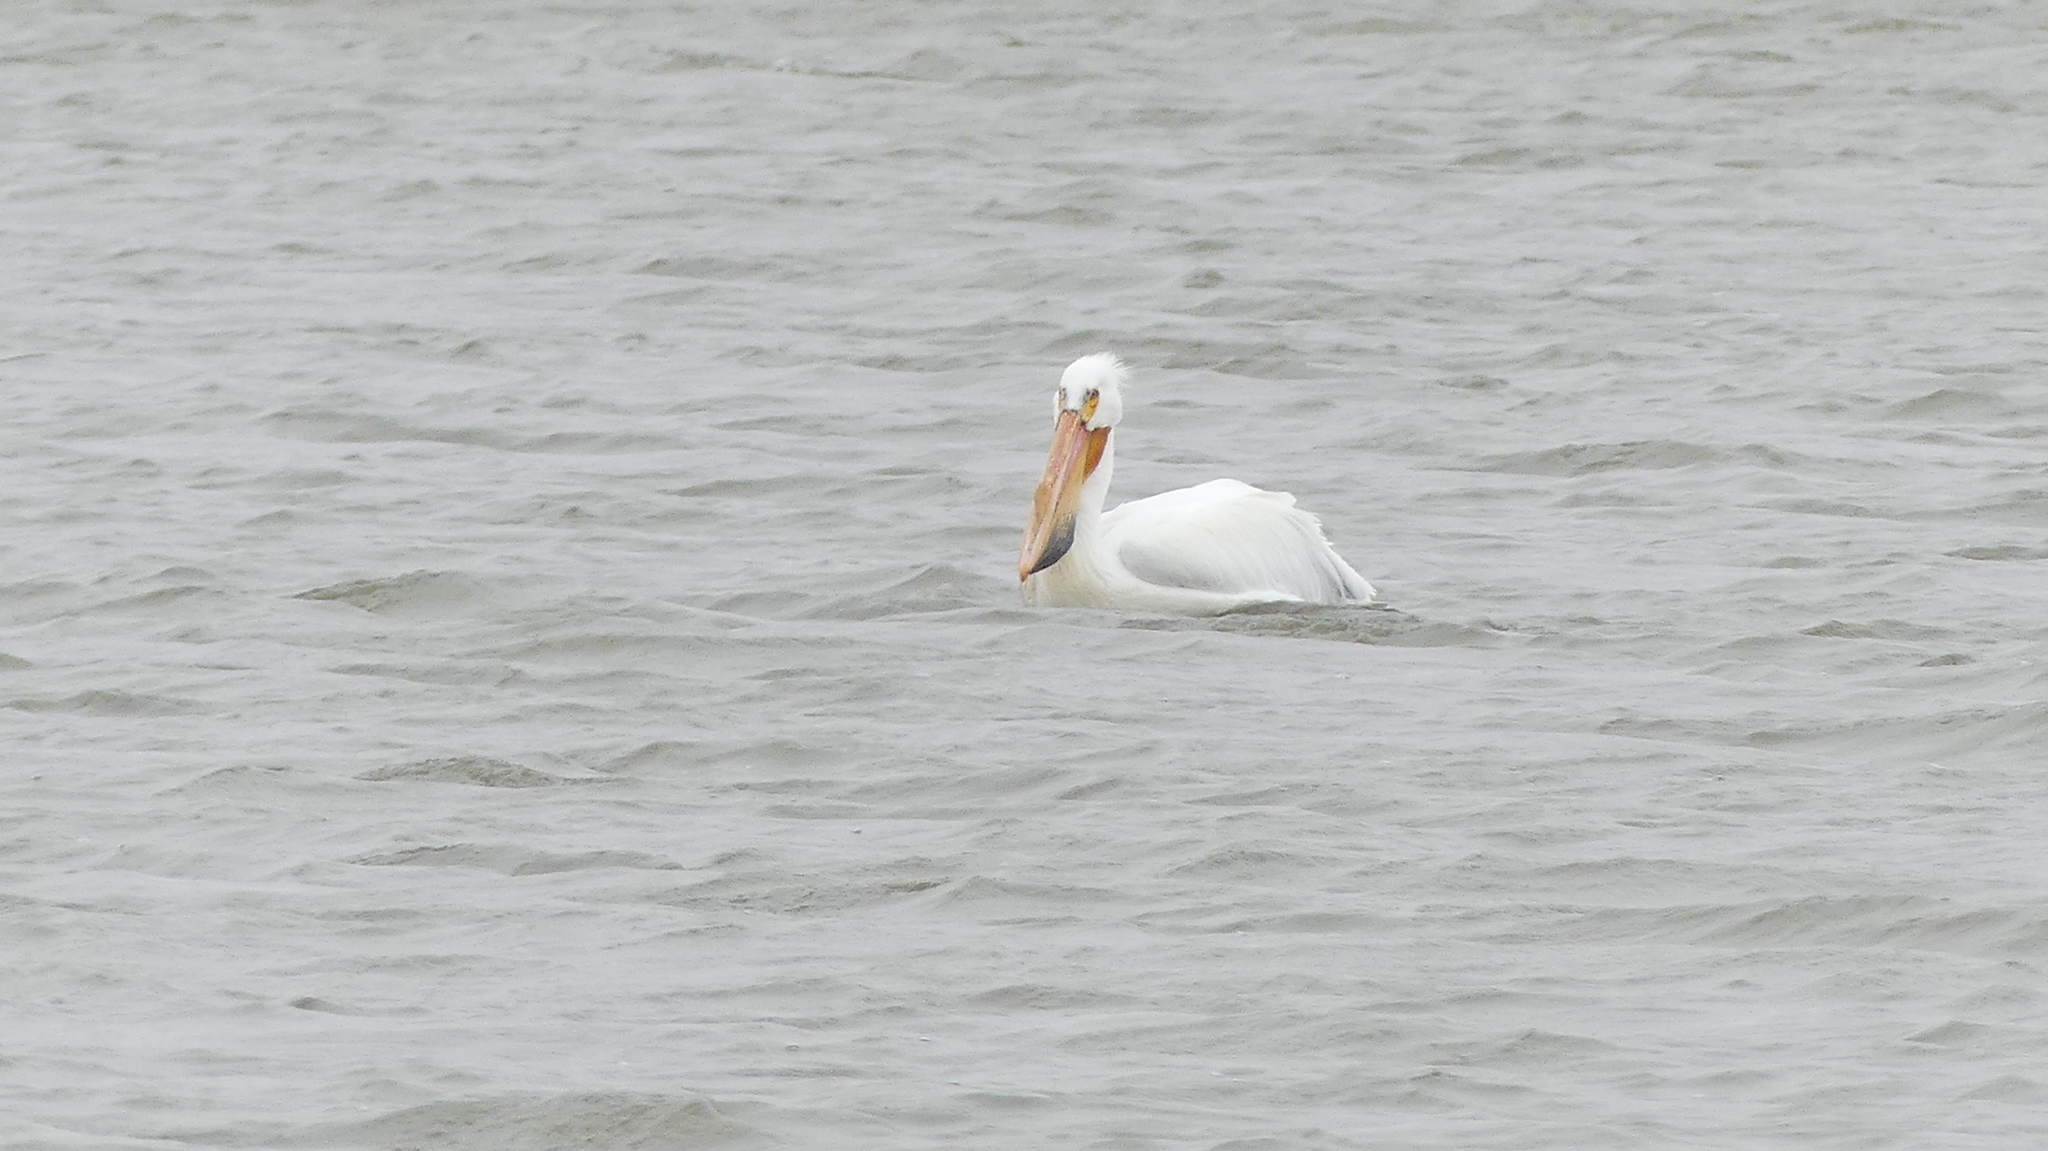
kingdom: Animalia
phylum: Chordata
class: Aves
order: Pelecaniformes
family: Pelecanidae
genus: Pelecanus
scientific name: Pelecanus erythrorhynchos
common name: American white pelican
